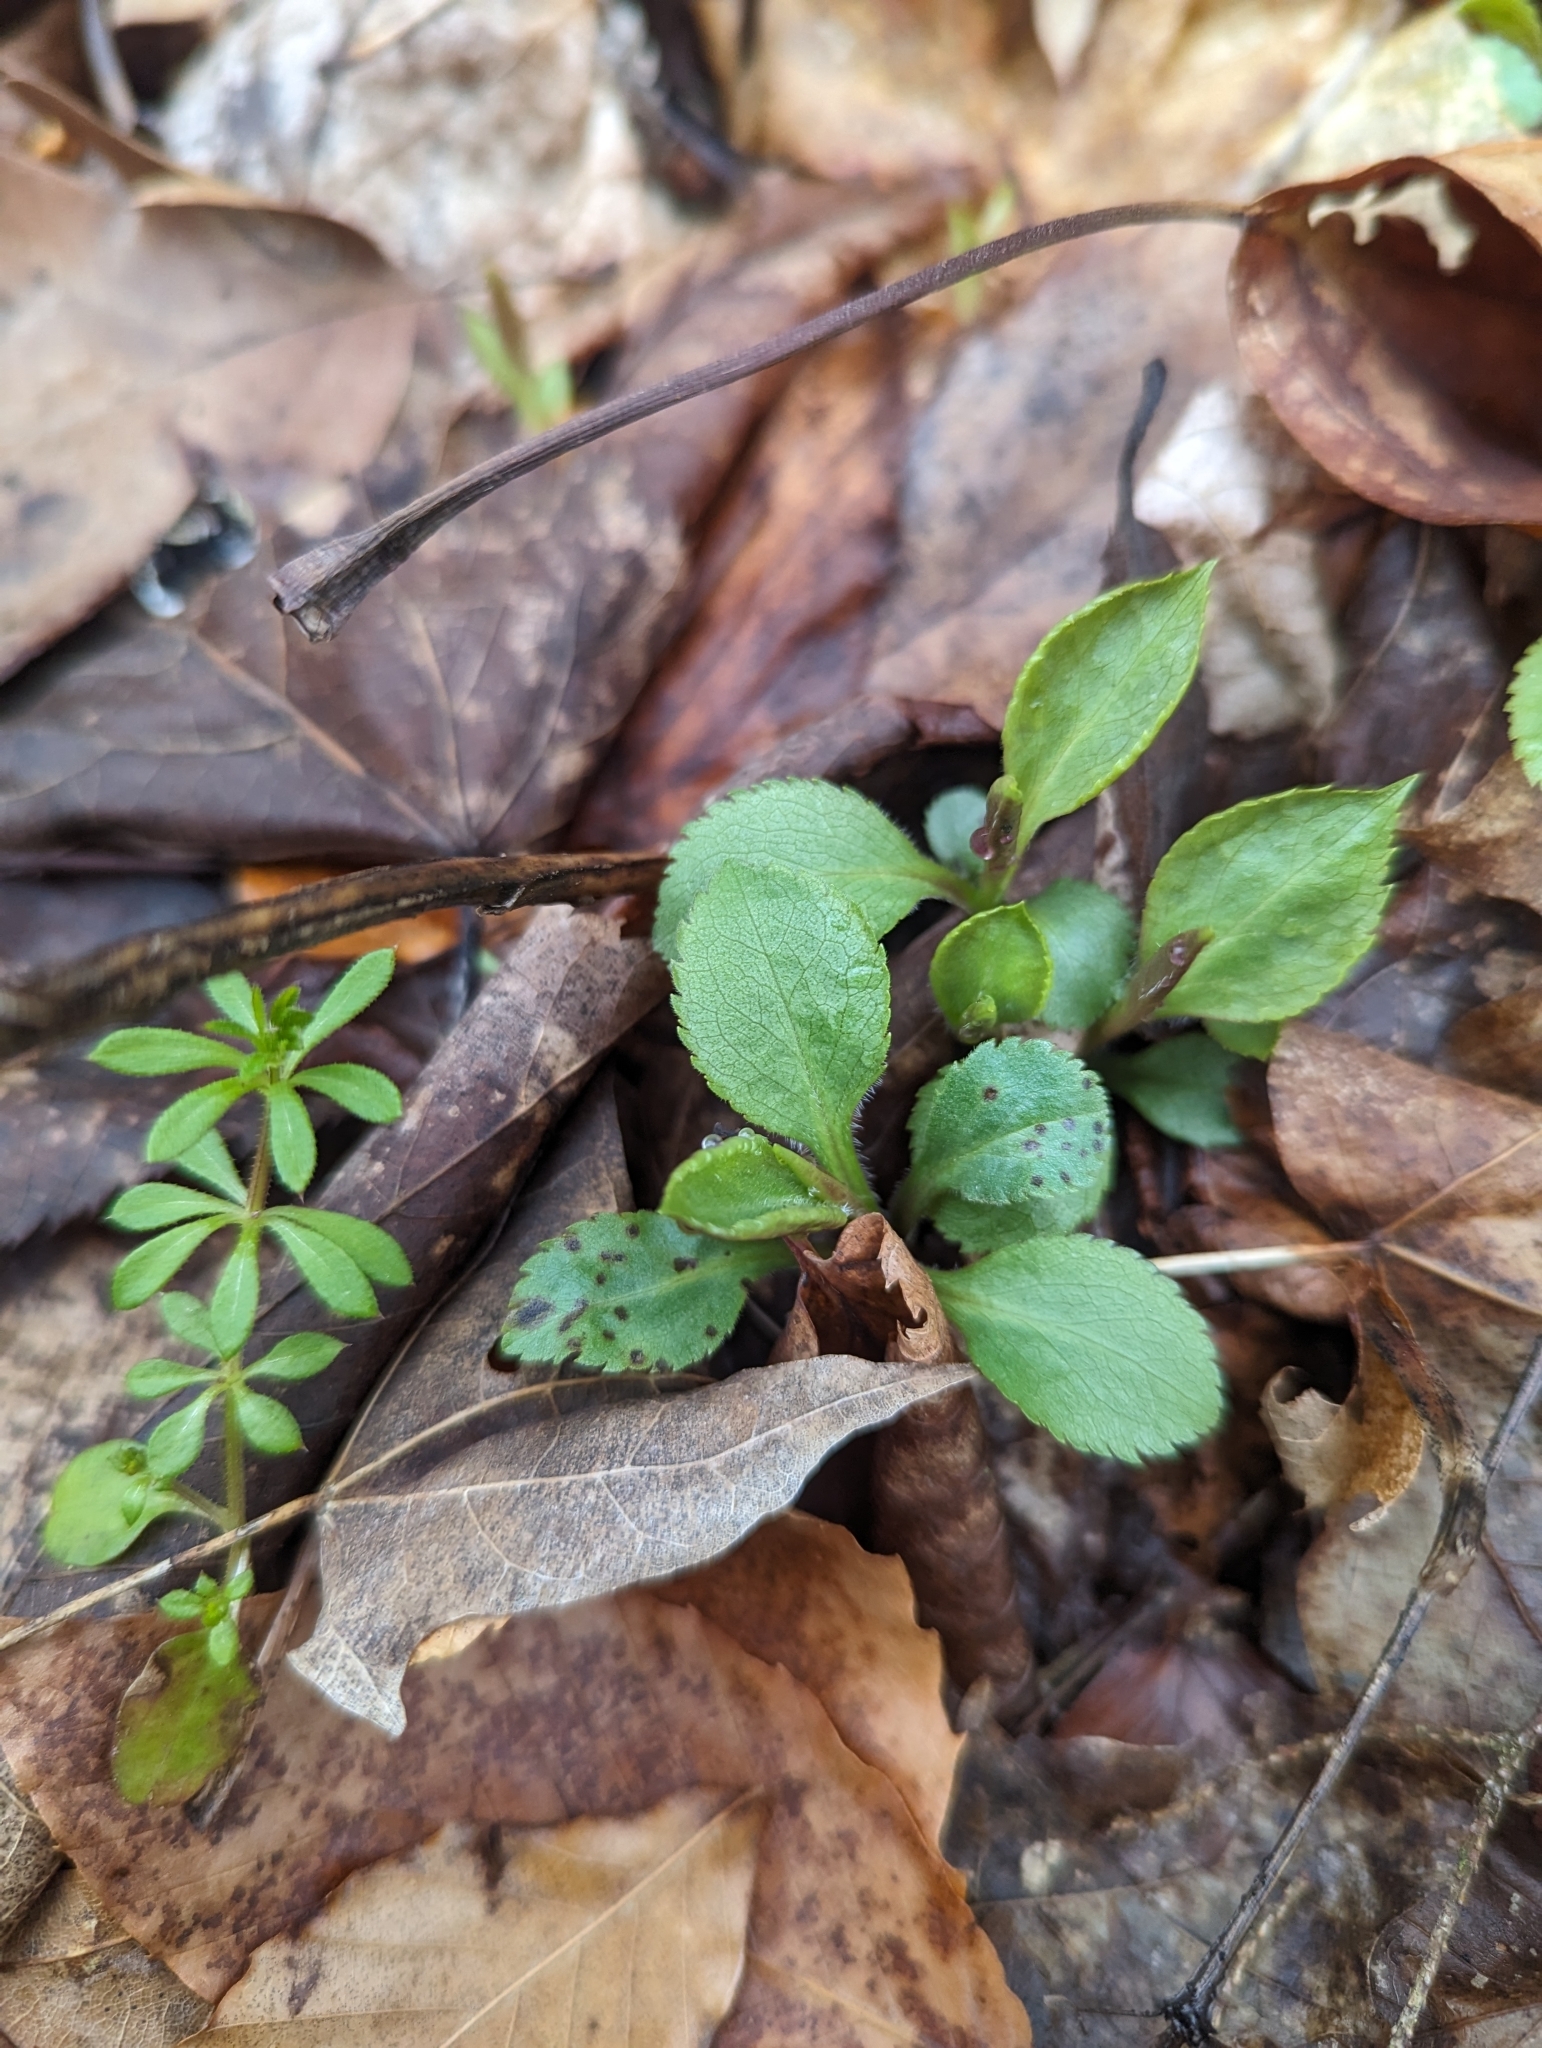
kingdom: Plantae
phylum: Tracheophyta
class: Magnoliopsida
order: Lamiales
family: Plantaginaceae
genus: Veronica
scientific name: Veronica officinalis
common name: Common speedwell
